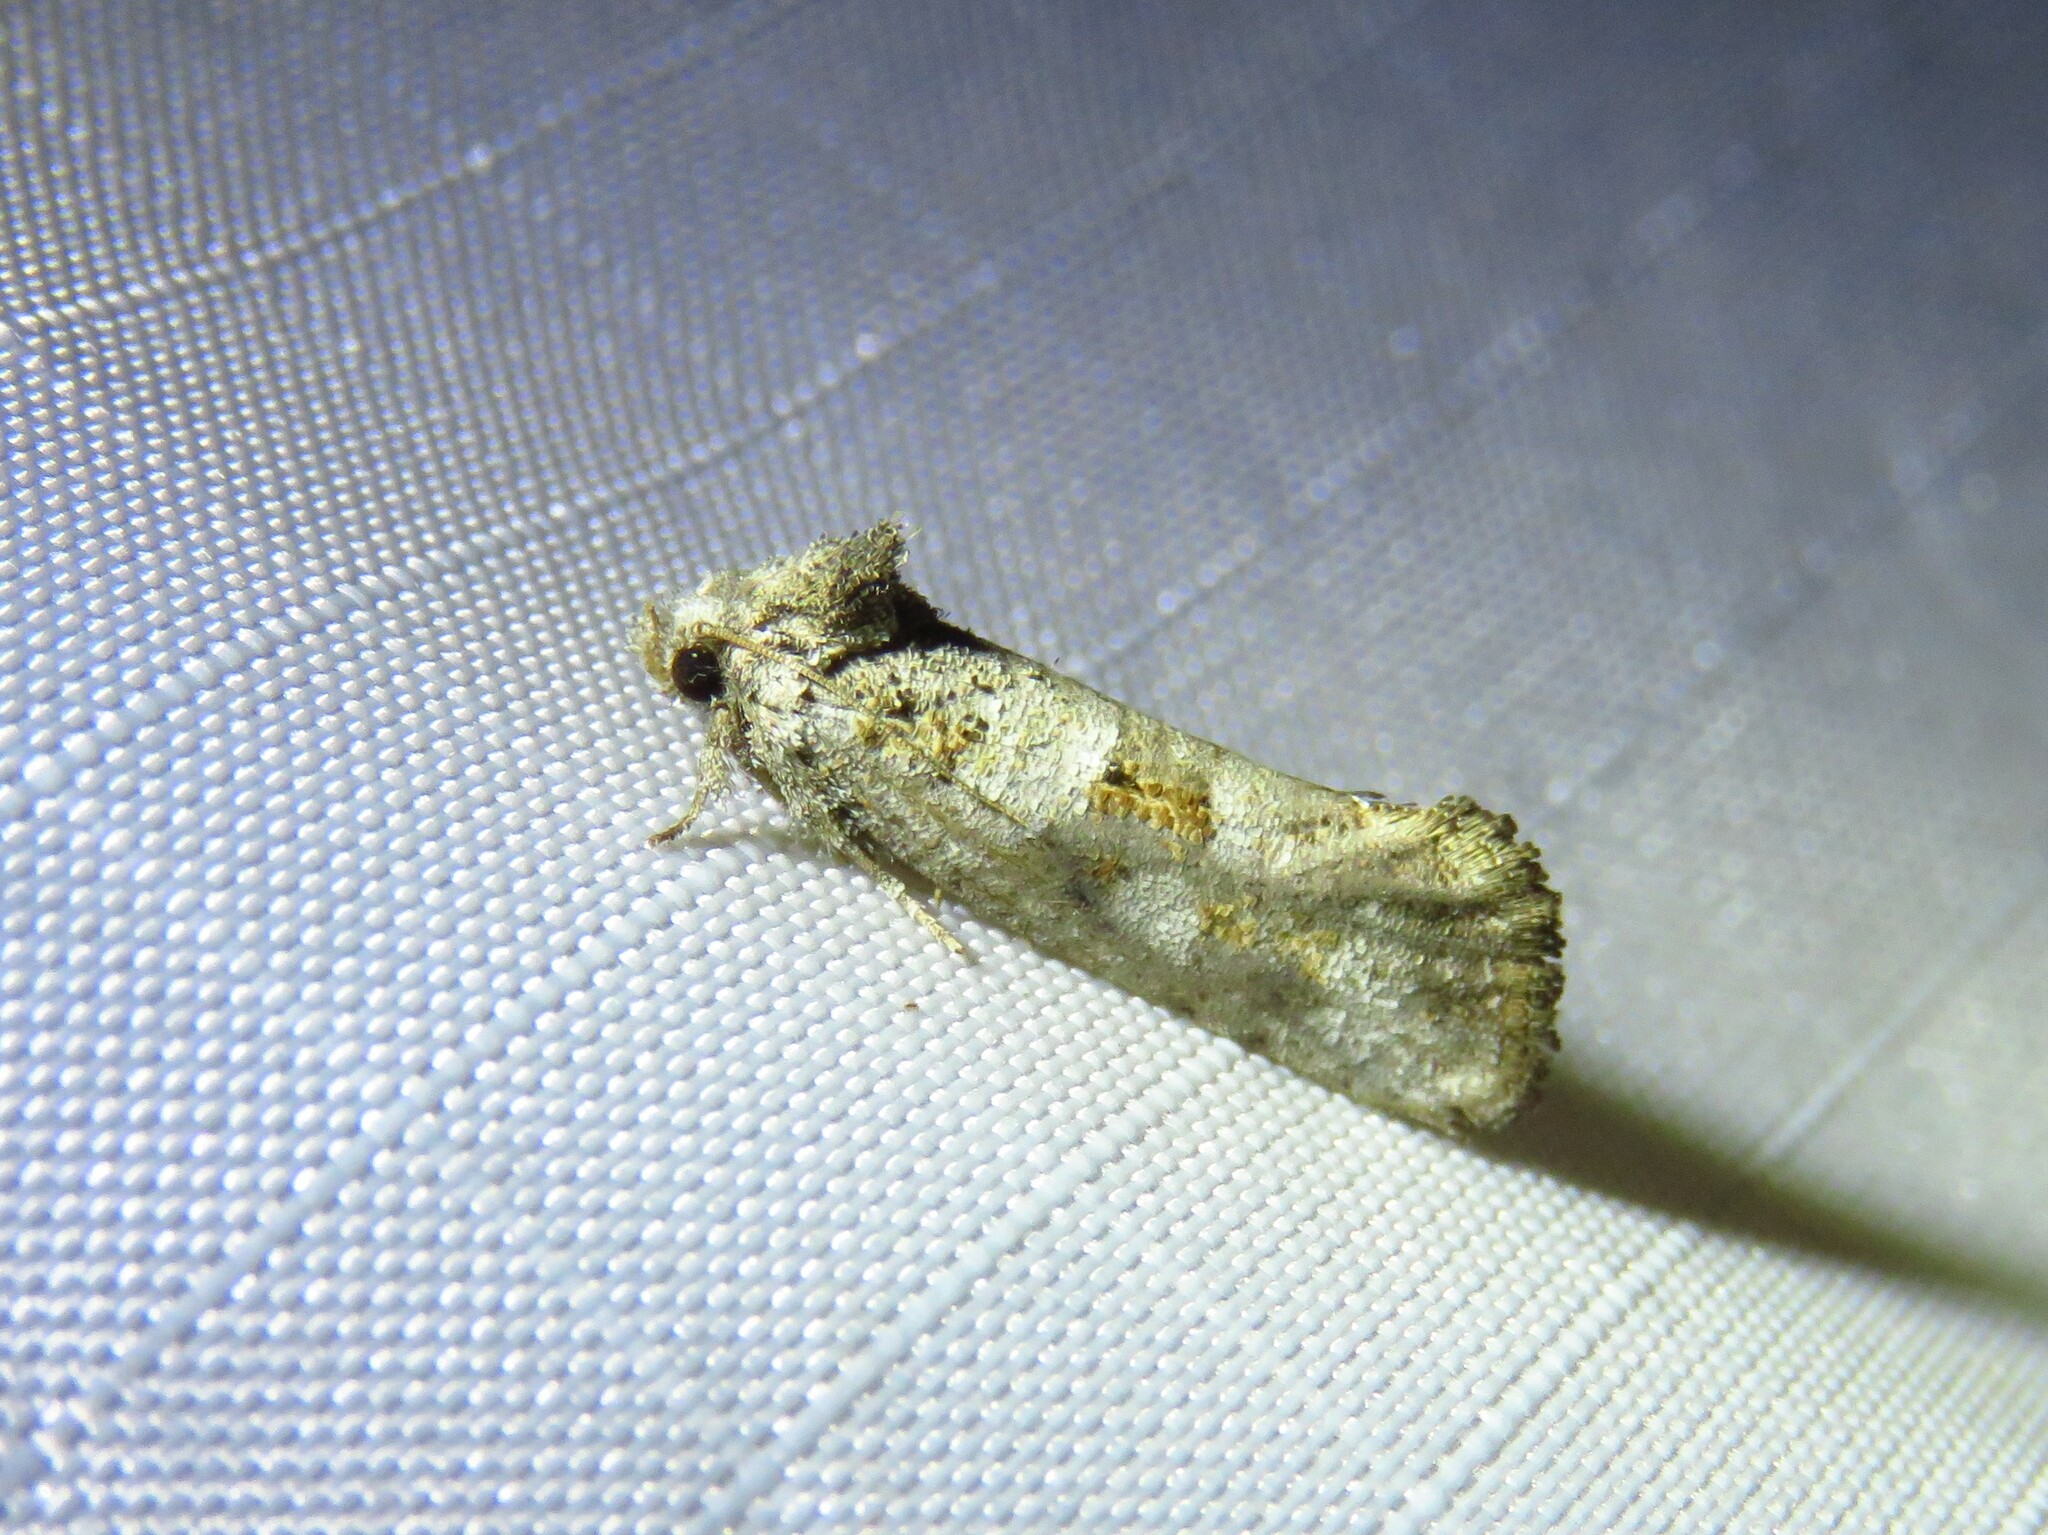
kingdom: Animalia
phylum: Arthropoda
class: Insecta
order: Lepidoptera
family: Tineidae
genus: Acrolophus
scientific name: Acrolophus piger
